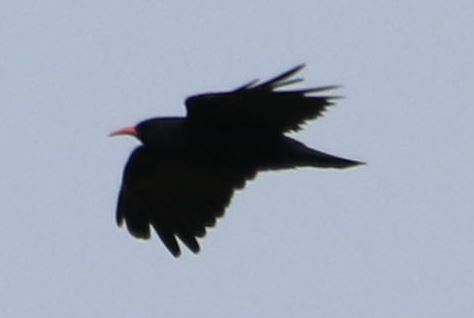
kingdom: Animalia
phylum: Chordata
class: Aves
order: Passeriformes
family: Corvidae
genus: Pyrrhocorax
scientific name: Pyrrhocorax pyrrhocorax
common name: Red-billed chough
